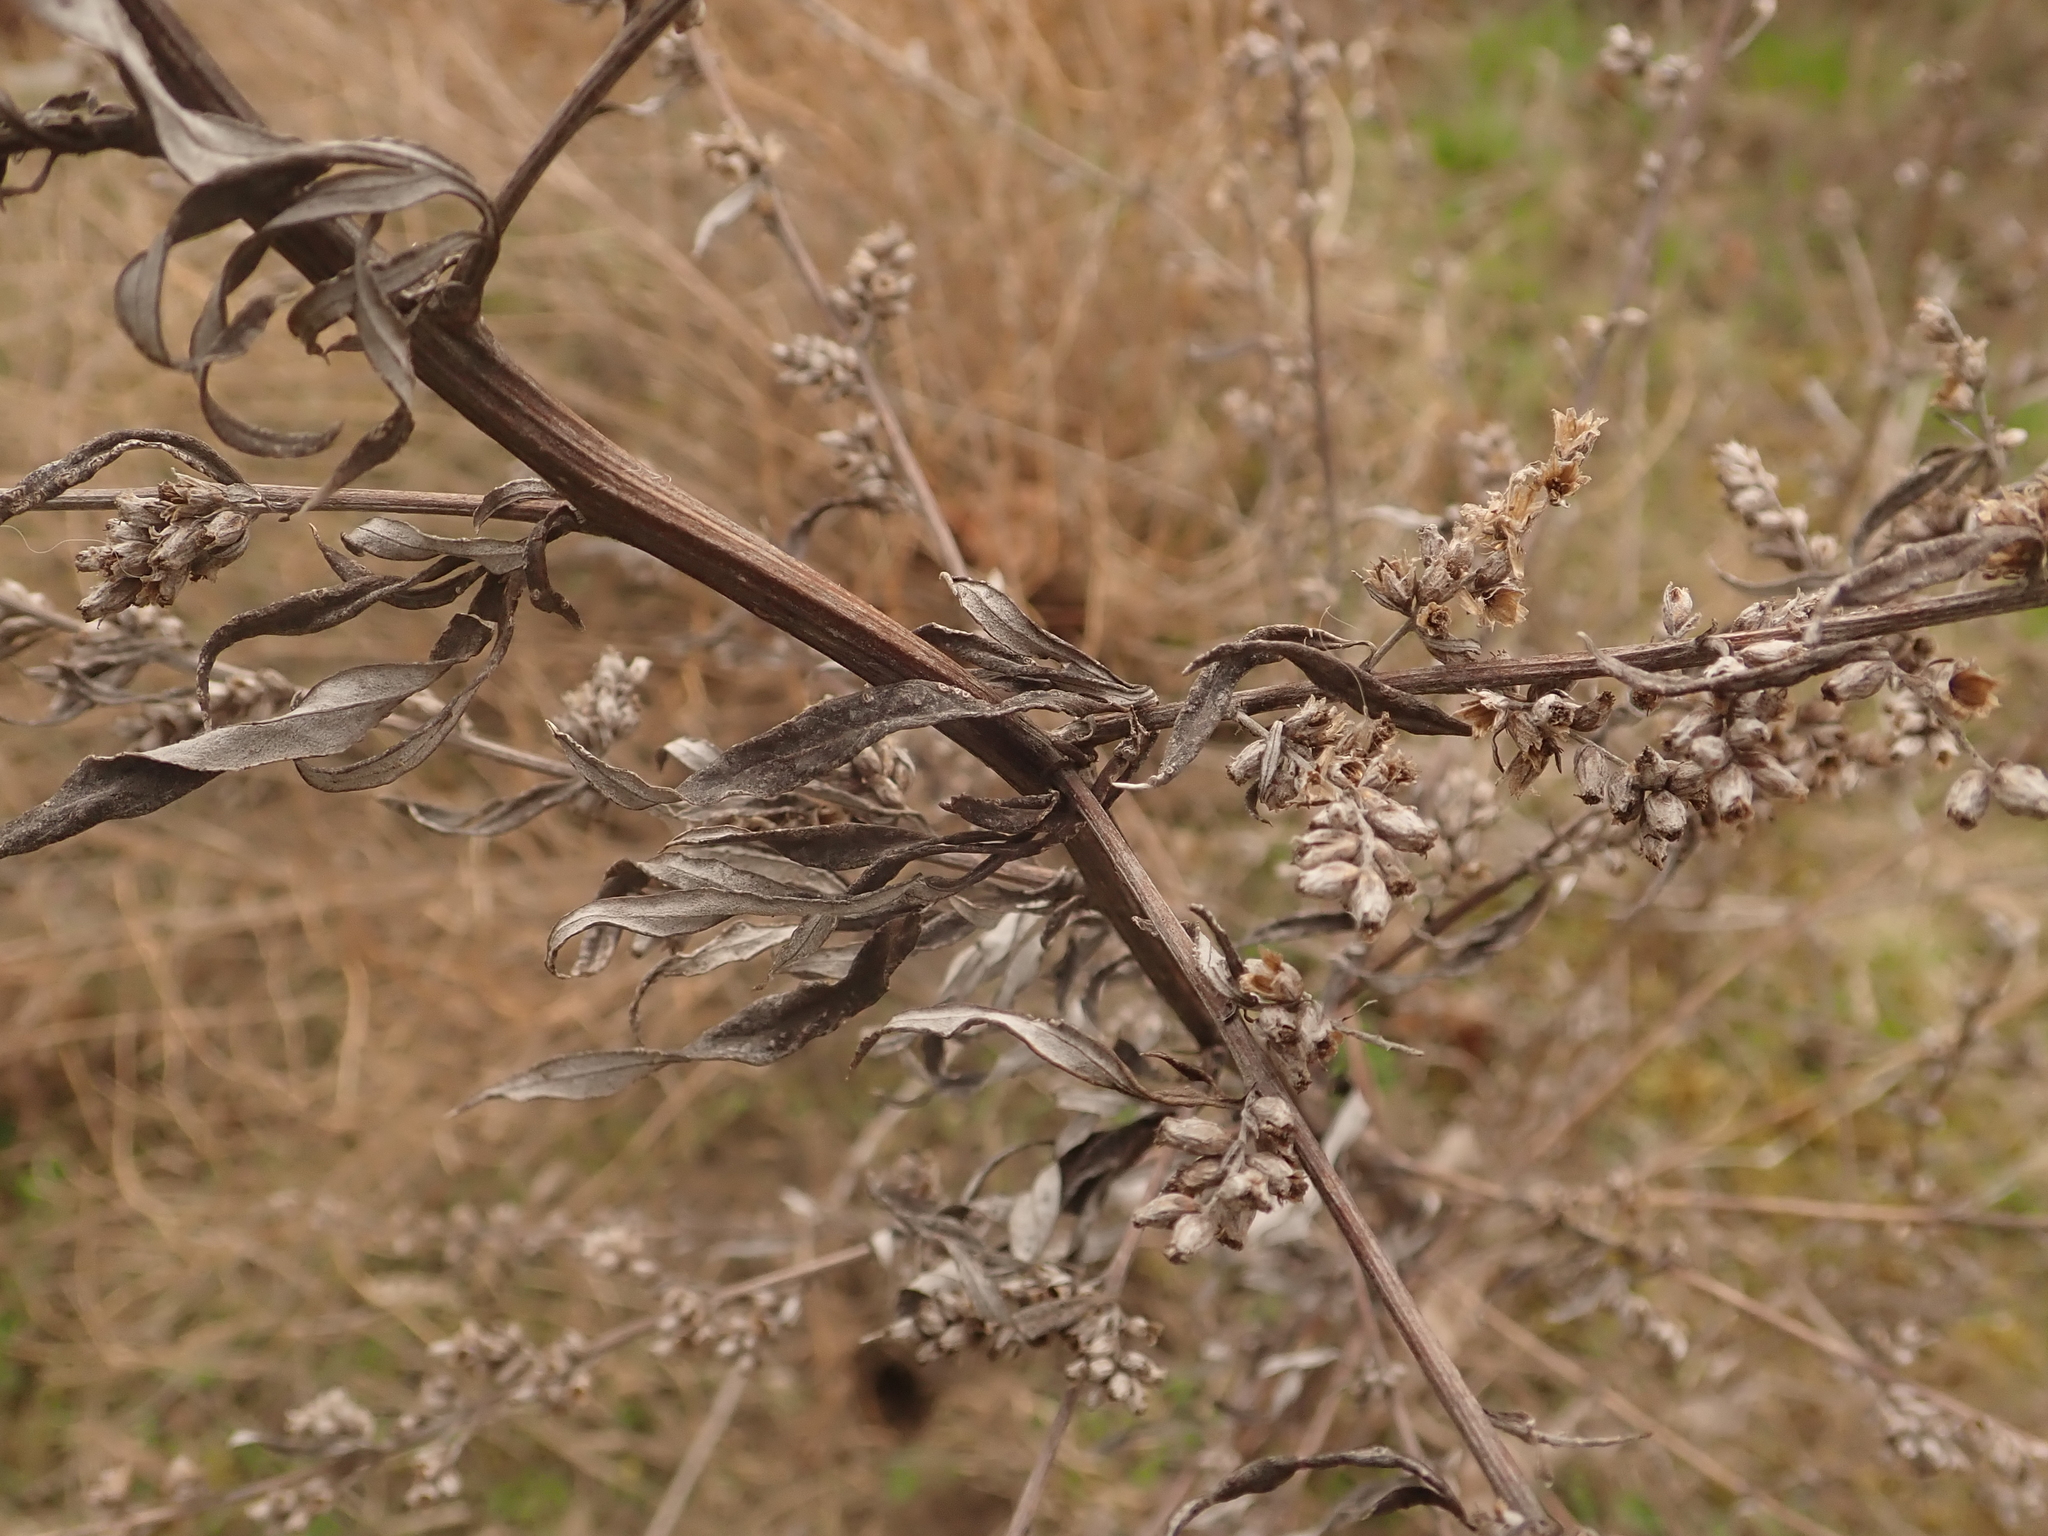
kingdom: Plantae
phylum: Tracheophyta
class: Magnoliopsida
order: Asterales
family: Asteraceae
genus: Artemisia
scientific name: Artemisia vulgaris
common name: Mugwort
